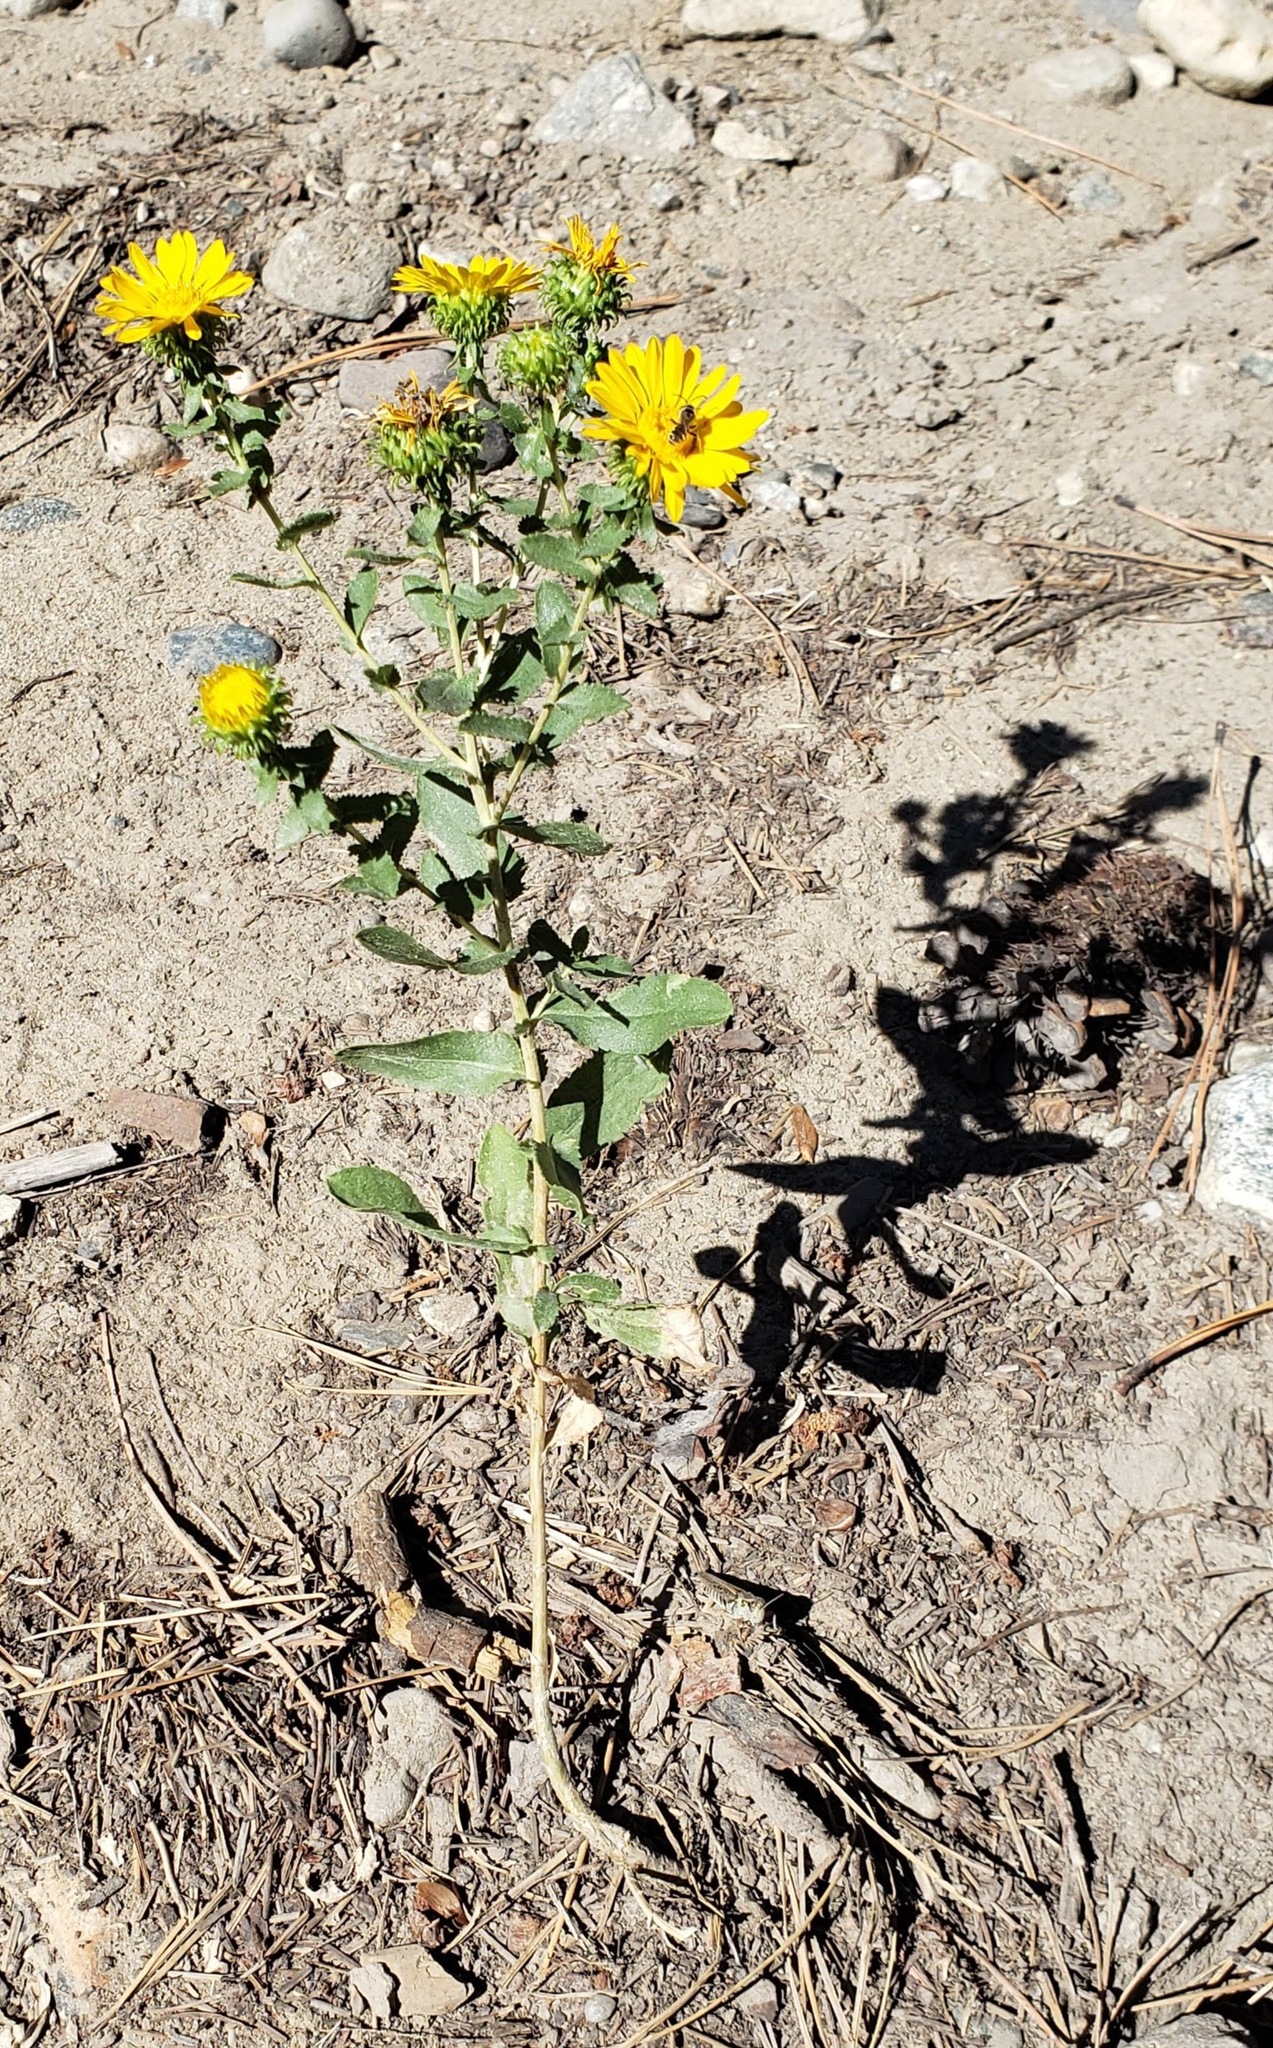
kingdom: Plantae
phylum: Tracheophyta
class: Magnoliopsida
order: Asterales
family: Asteraceae
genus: Grindelia
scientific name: Grindelia squarrosa
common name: Curly-cup gumweed
